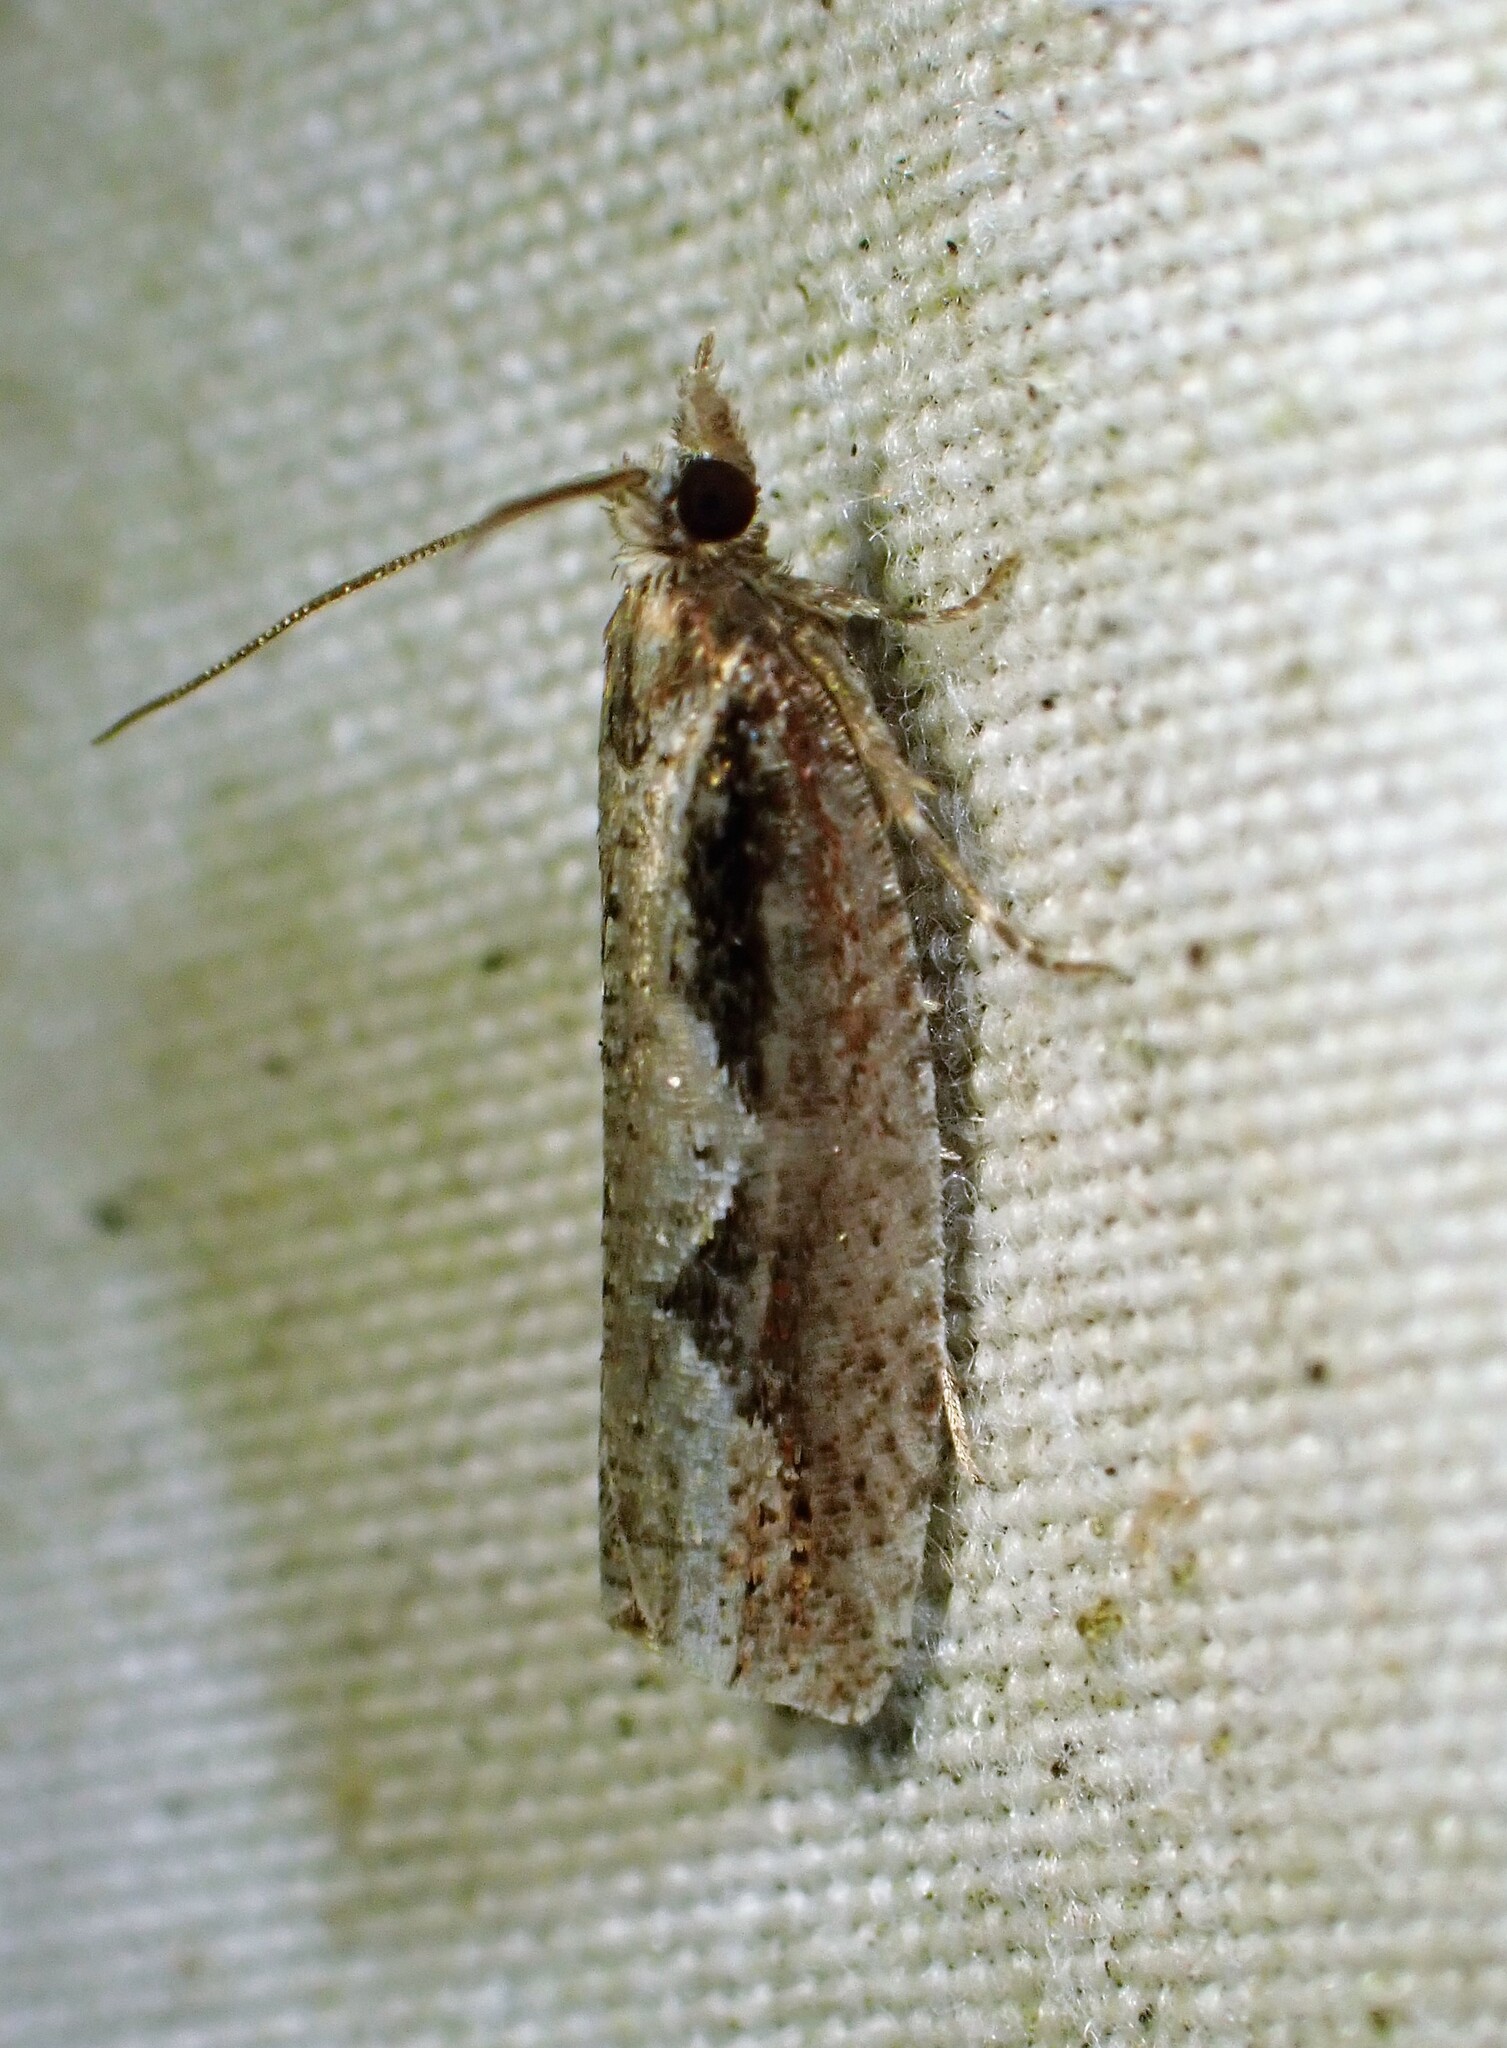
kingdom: Animalia
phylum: Arthropoda
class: Insecta
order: Lepidoptera
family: Tortricidae
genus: Epinotia
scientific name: Epinotia lindana
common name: Diamondback epinotia moth
